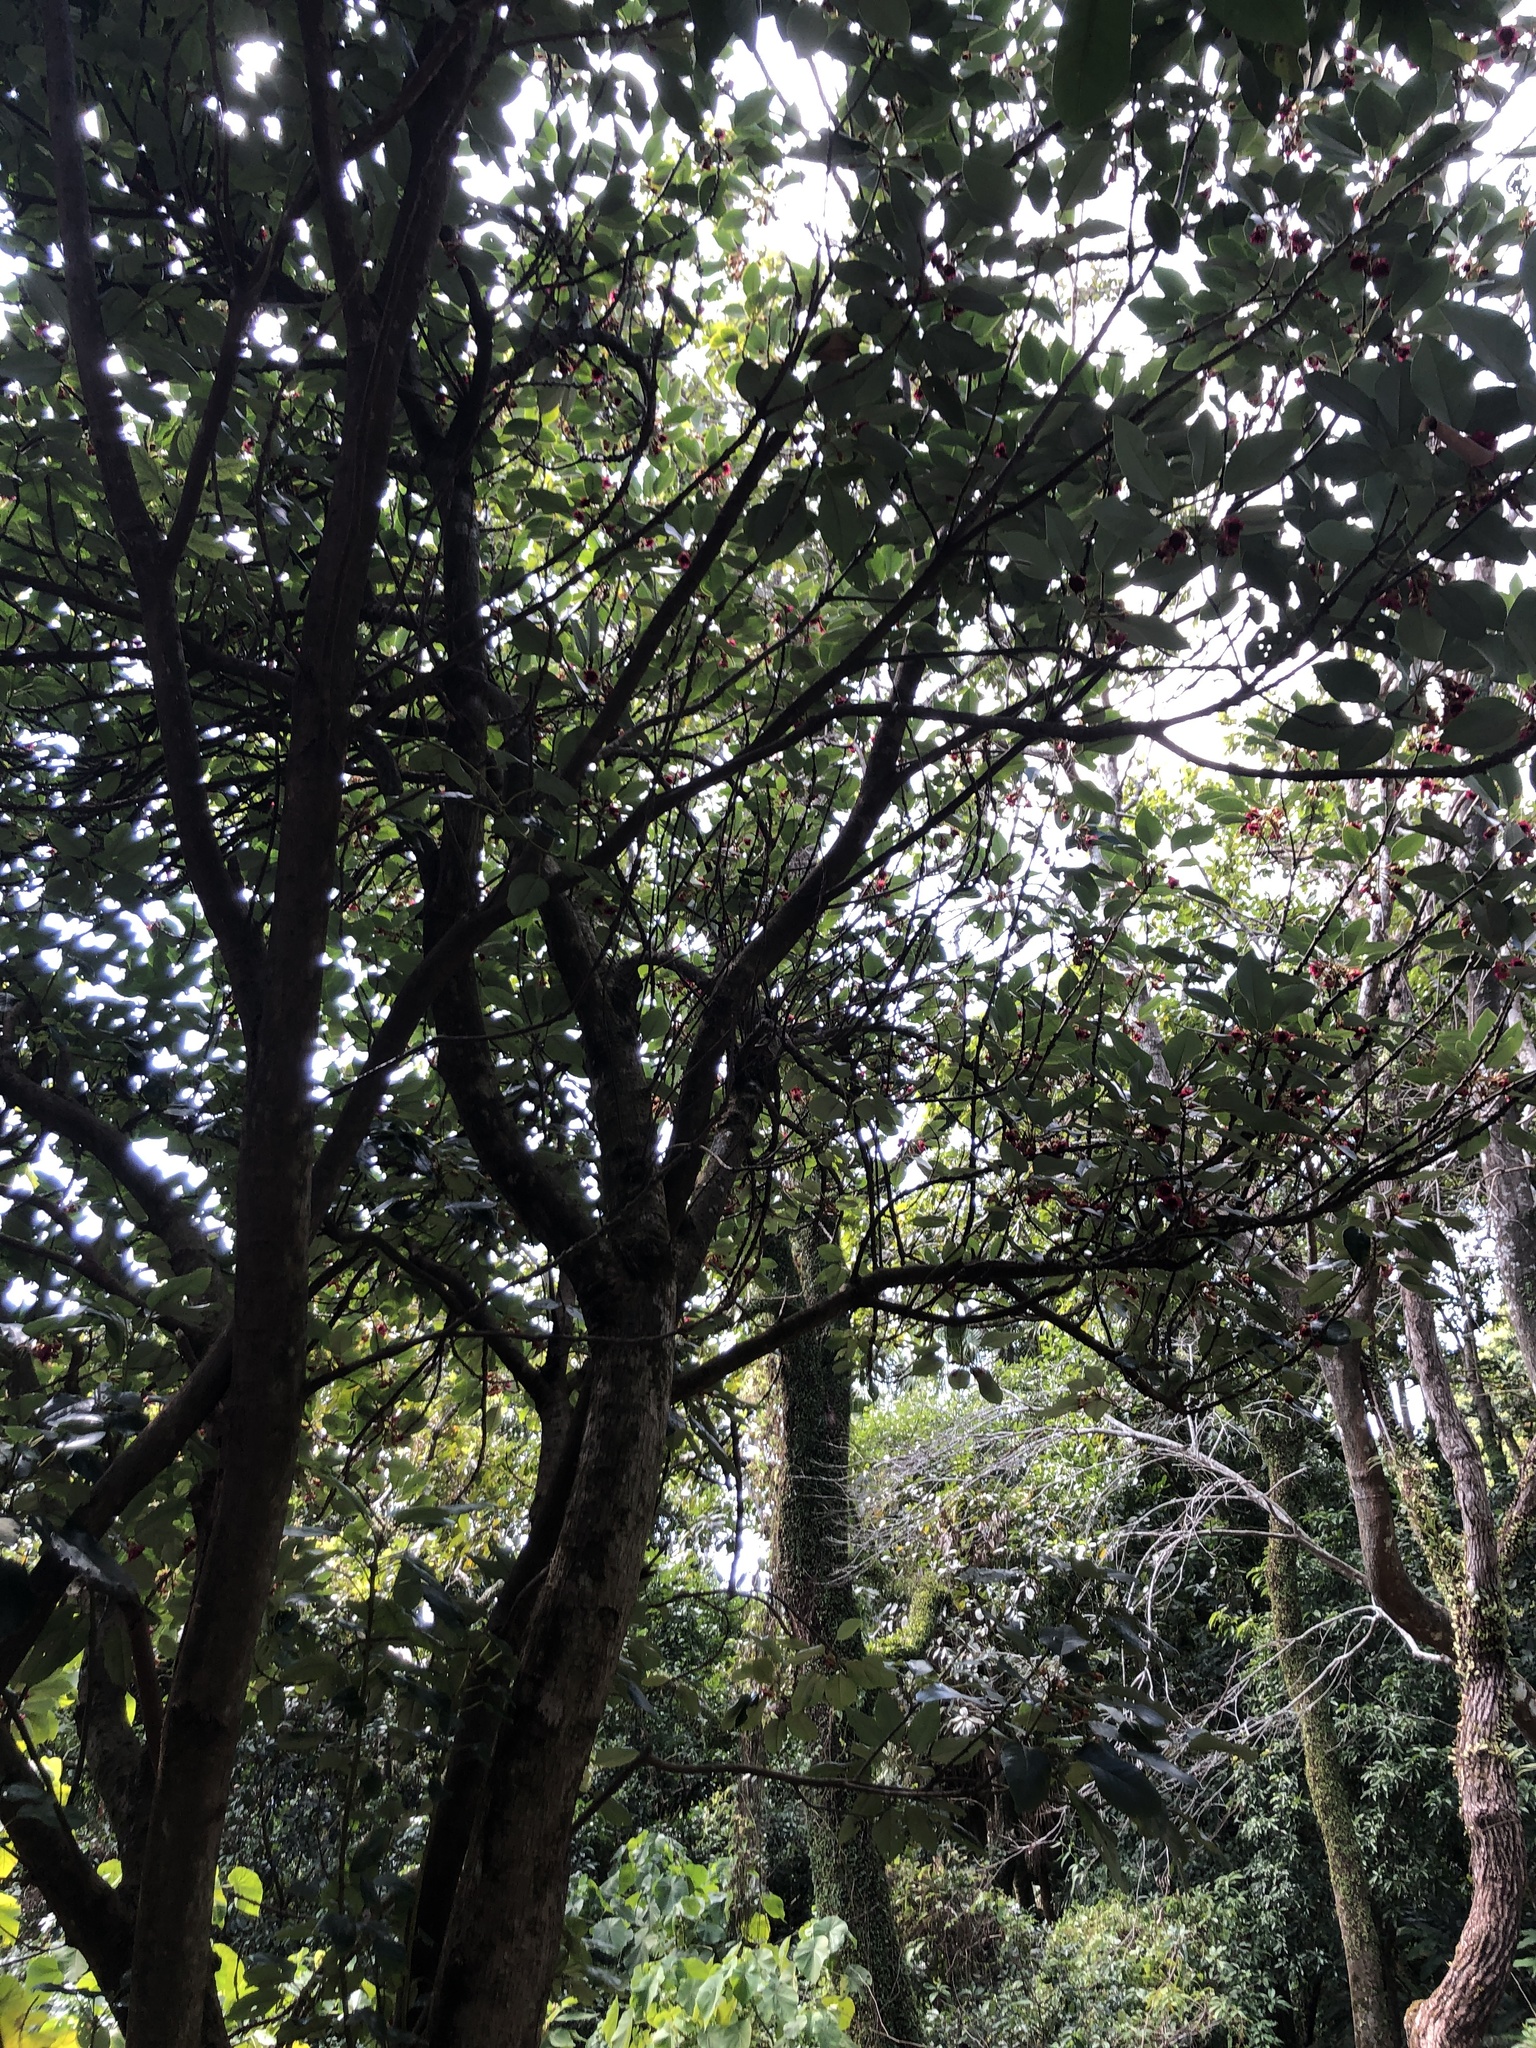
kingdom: Plantae
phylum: Tracheophyta
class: Magnoliopsida
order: Saxifragales
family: Hamamelidaceae
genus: Rhodoleia
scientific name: Rhodoleia championii
